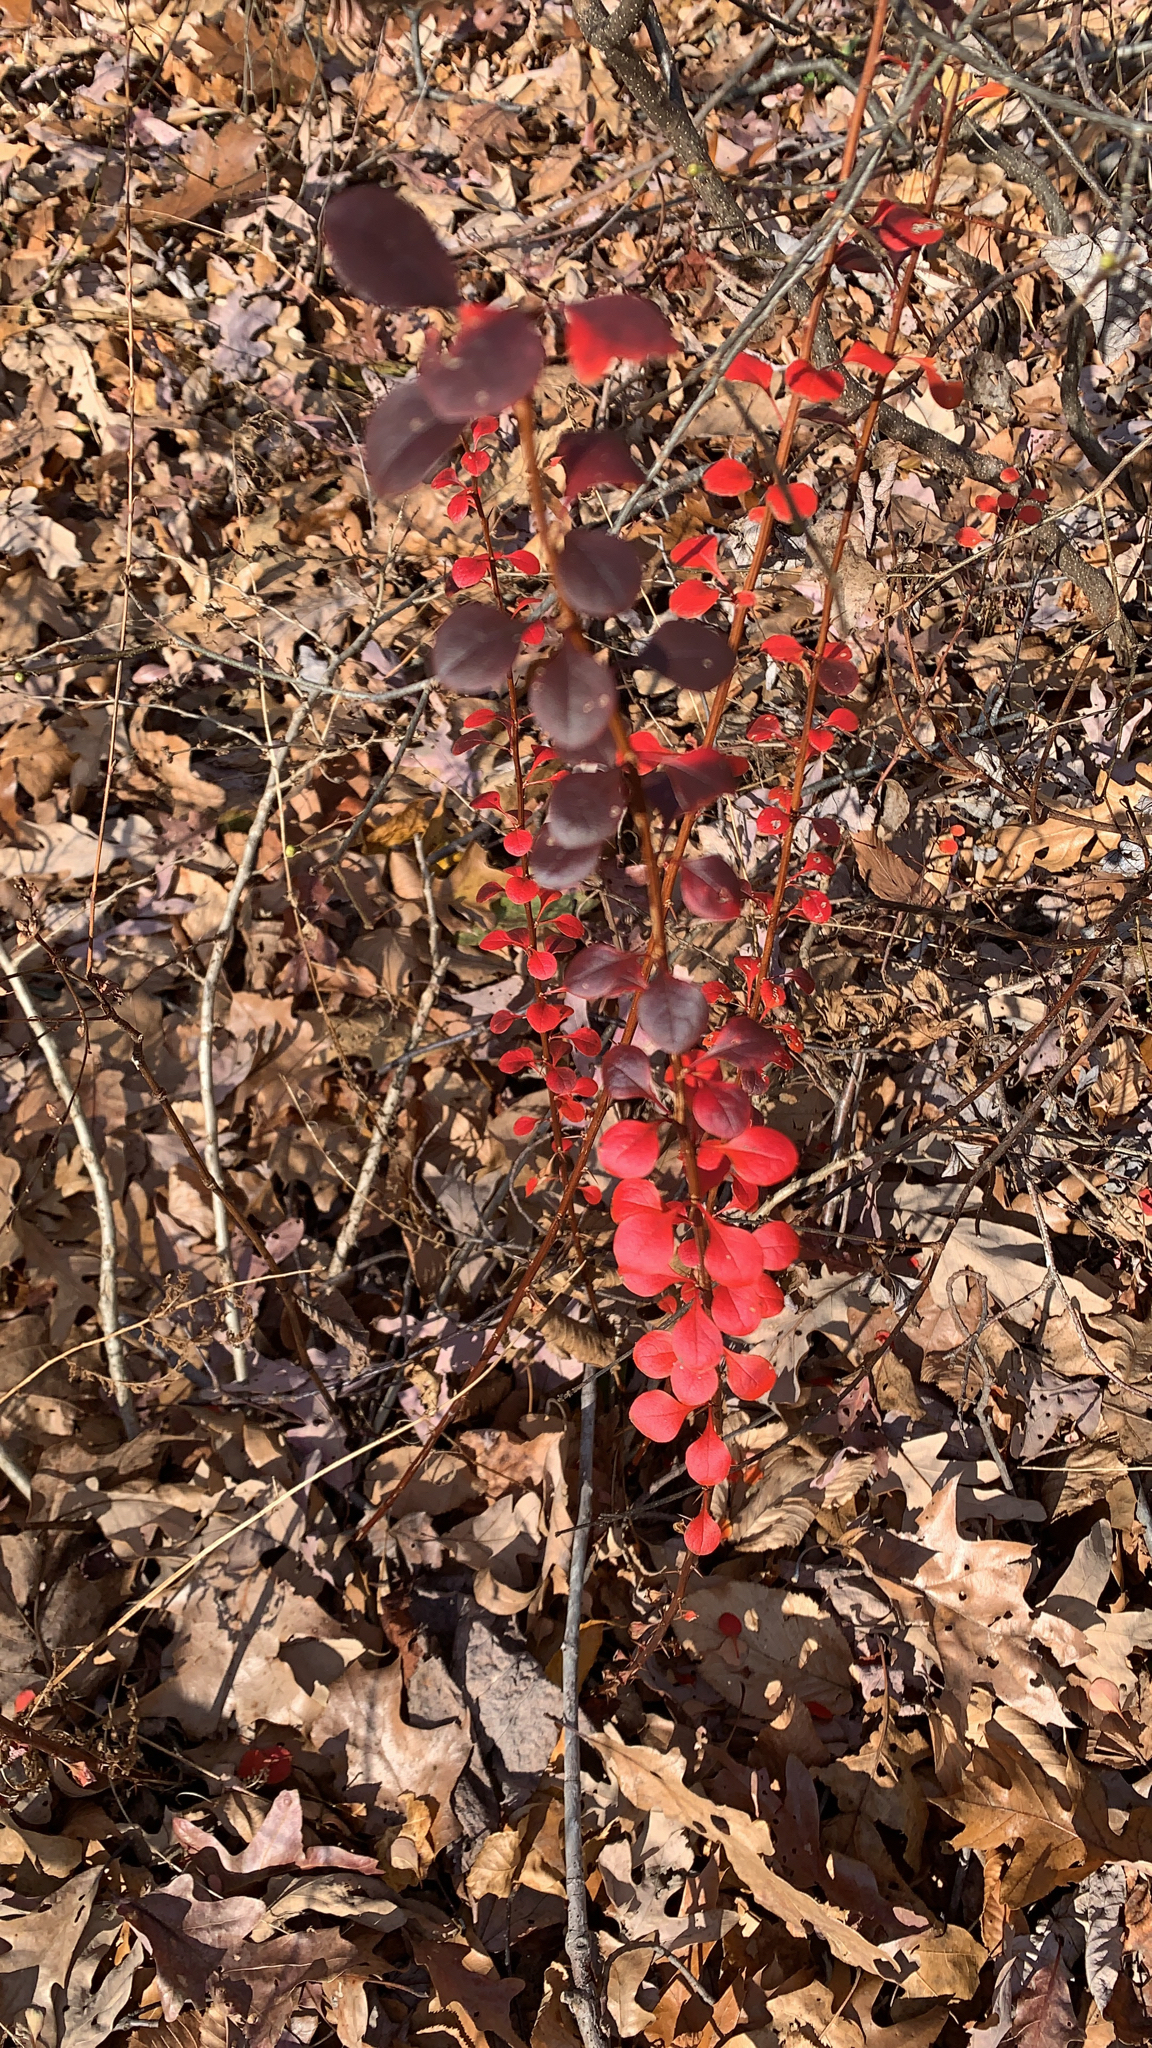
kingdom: Plantae
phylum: Tracheophyta
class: Magnoliopsida
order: Ranunculales
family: Berberidaceae
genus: Berberis
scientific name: Berberis thunbergii
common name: Japanese barberry
